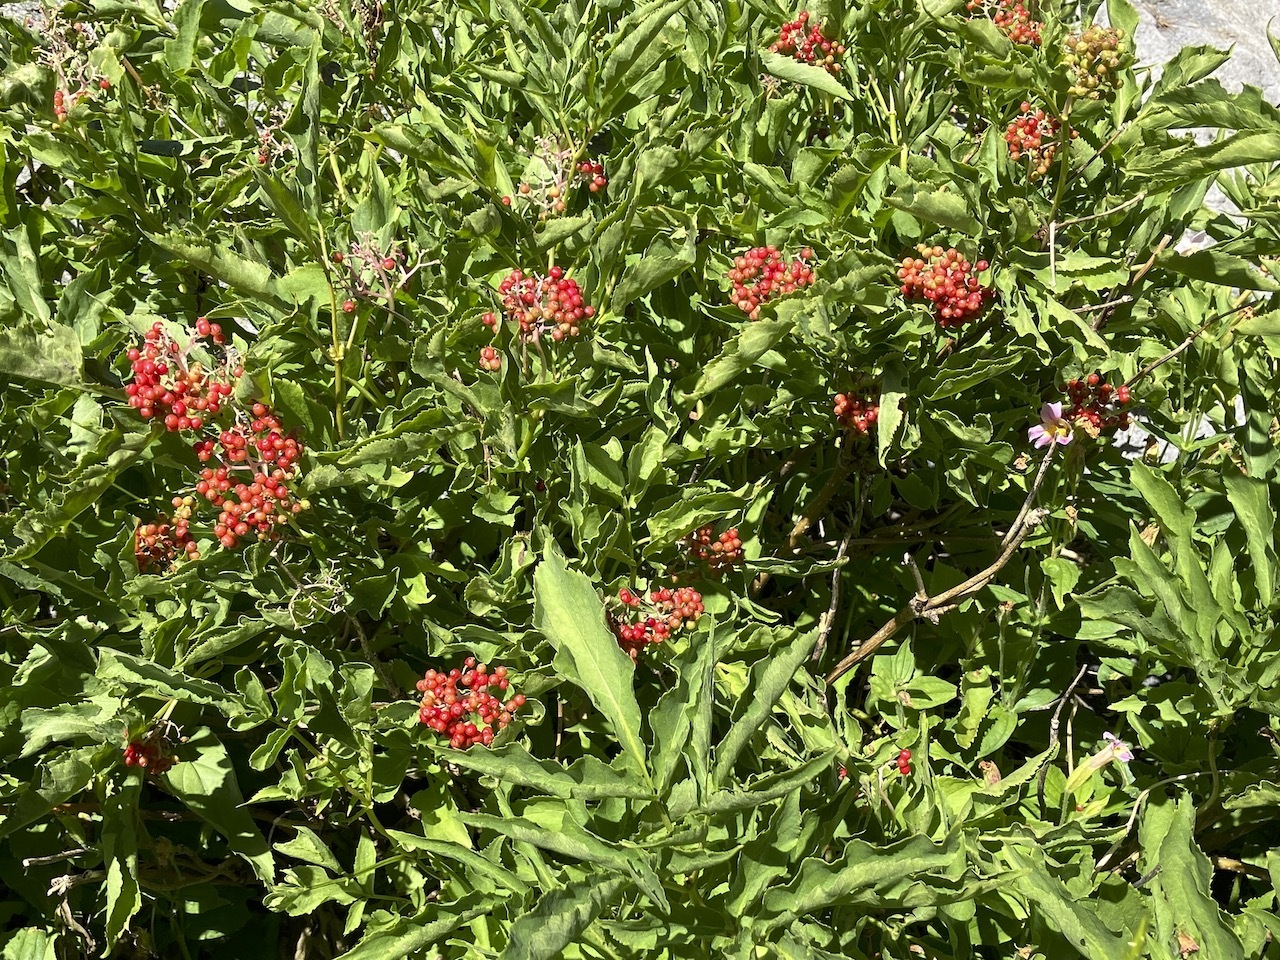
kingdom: Plantae
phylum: Tracheophyta
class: Magnoliopsida
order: Dipsacales
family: Viburnaceae
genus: Sambucus
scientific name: Sambucus racemosa
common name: Red-berried elder
